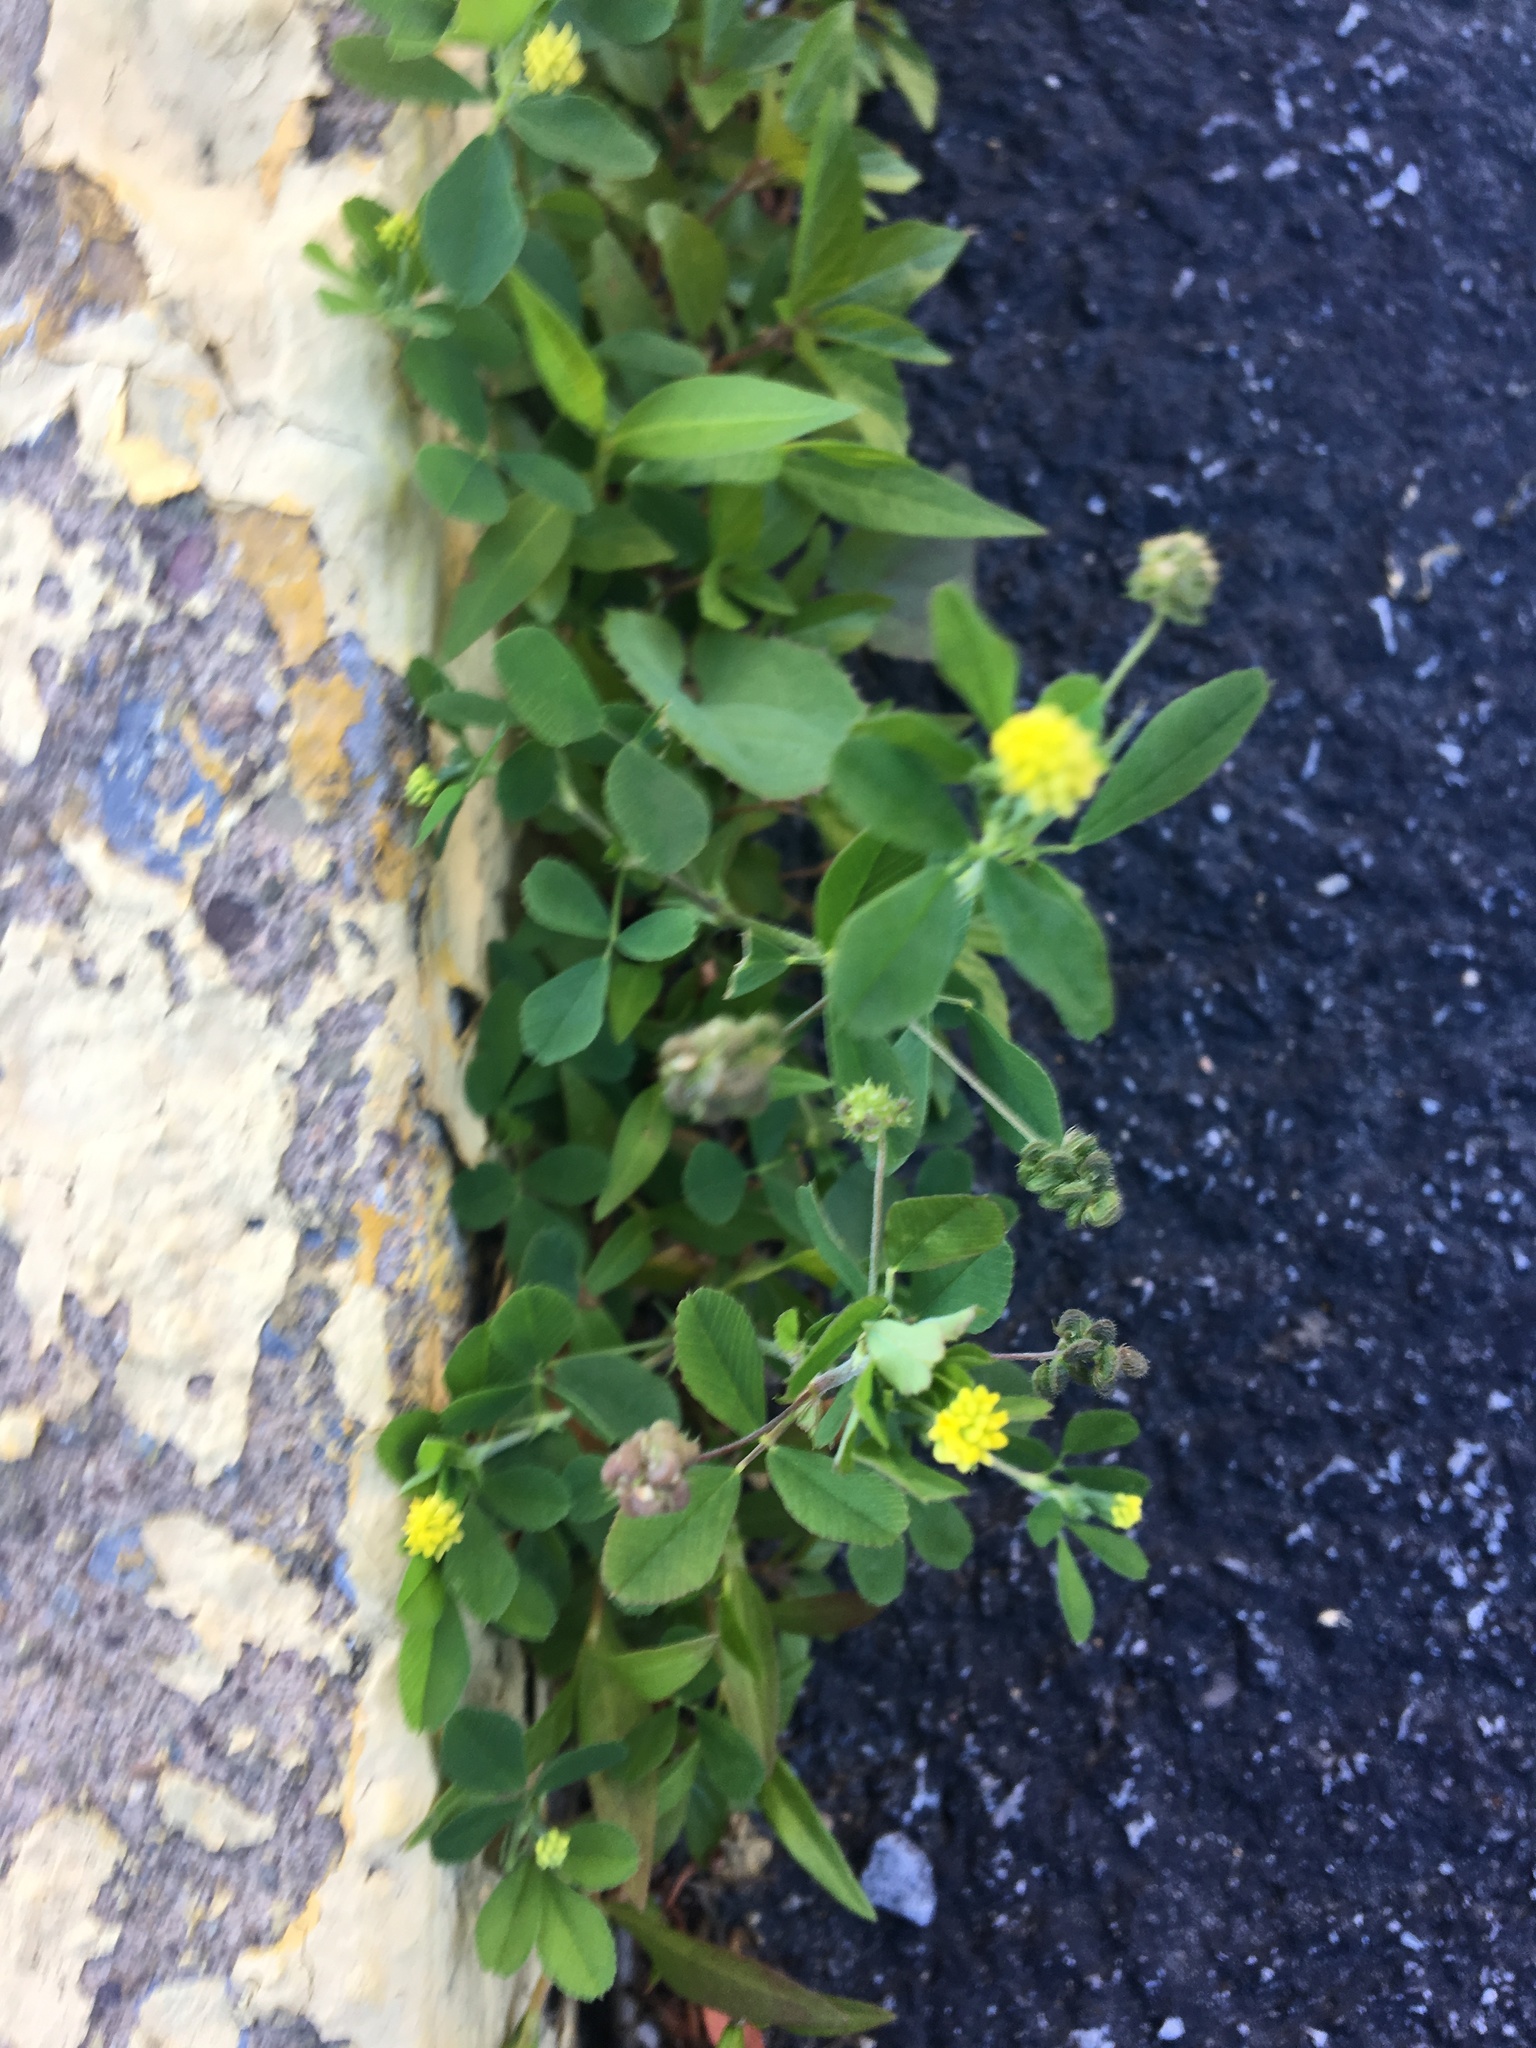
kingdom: Plantae
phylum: Tracheophyta
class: Magnoliopsida
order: Fabales
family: Fabaceae
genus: Medicago
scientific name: Medicago lupulina
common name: Black medick
